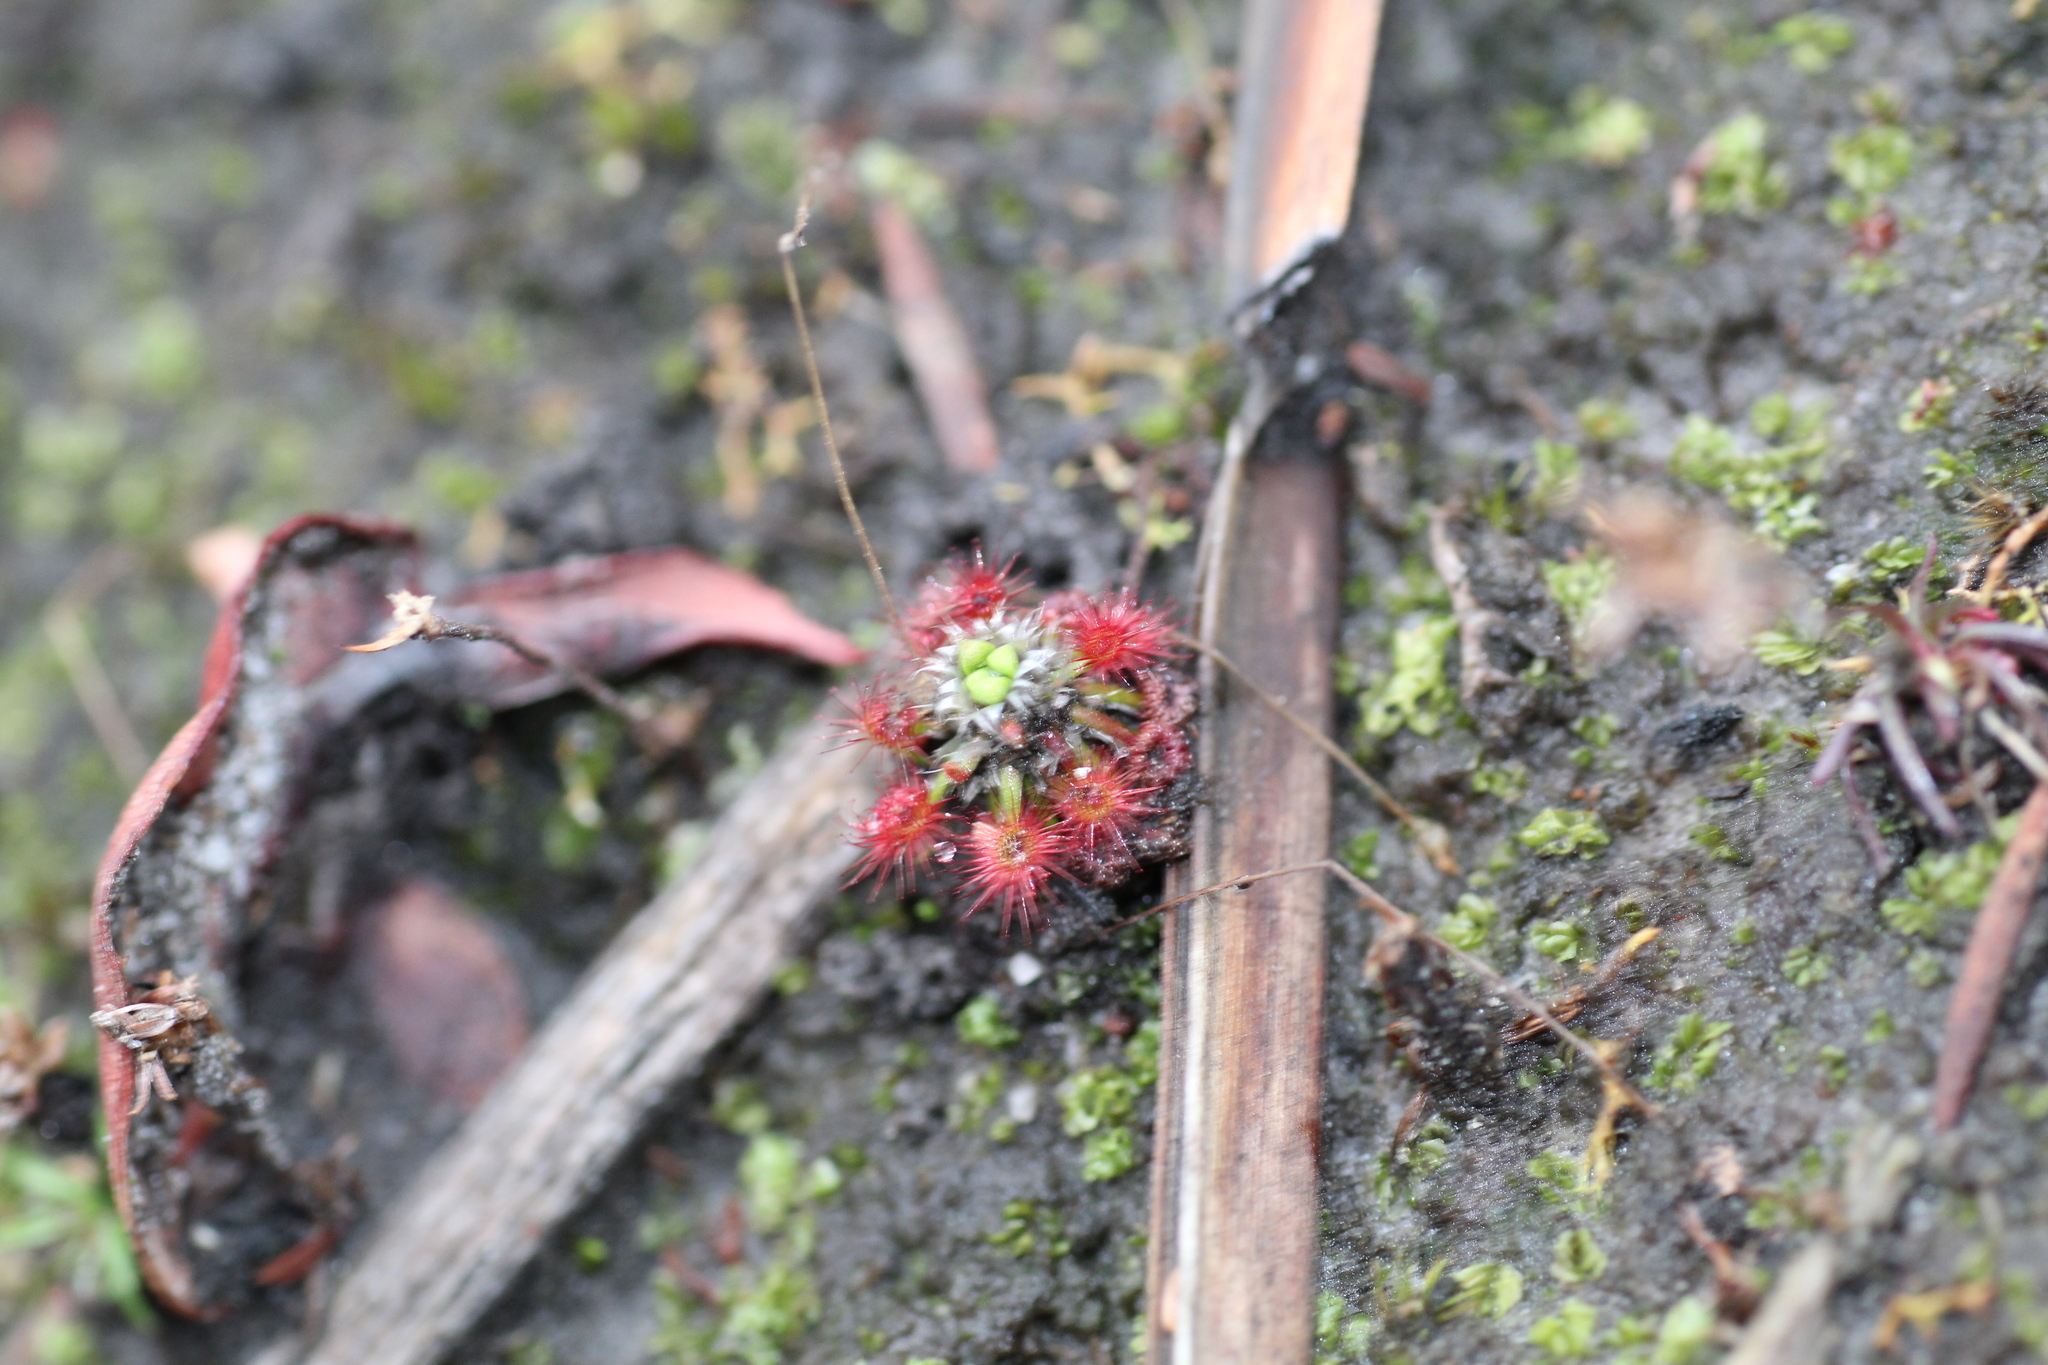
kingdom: Plantae
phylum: Tracheophyta
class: Magnoliopsida
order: Caryophyllales
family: Droseraceae
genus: Drosera
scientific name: Drosera paleacea
